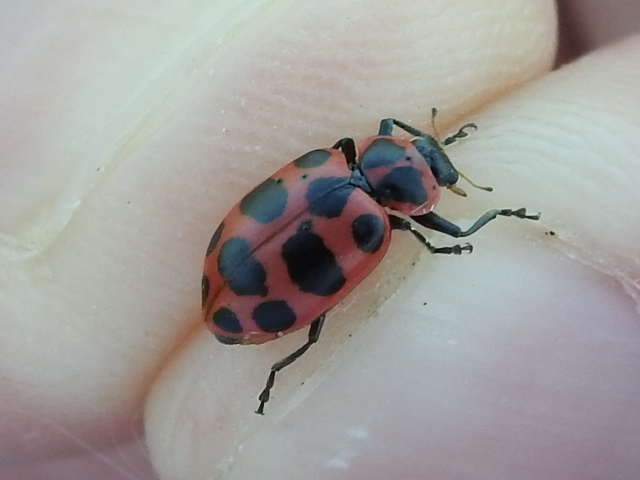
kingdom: Animalia
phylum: Arthropoda
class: Insecta
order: Coleoptera
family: Coccinellidae
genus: Coleomegilla
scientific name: Coleomegilla maculata
